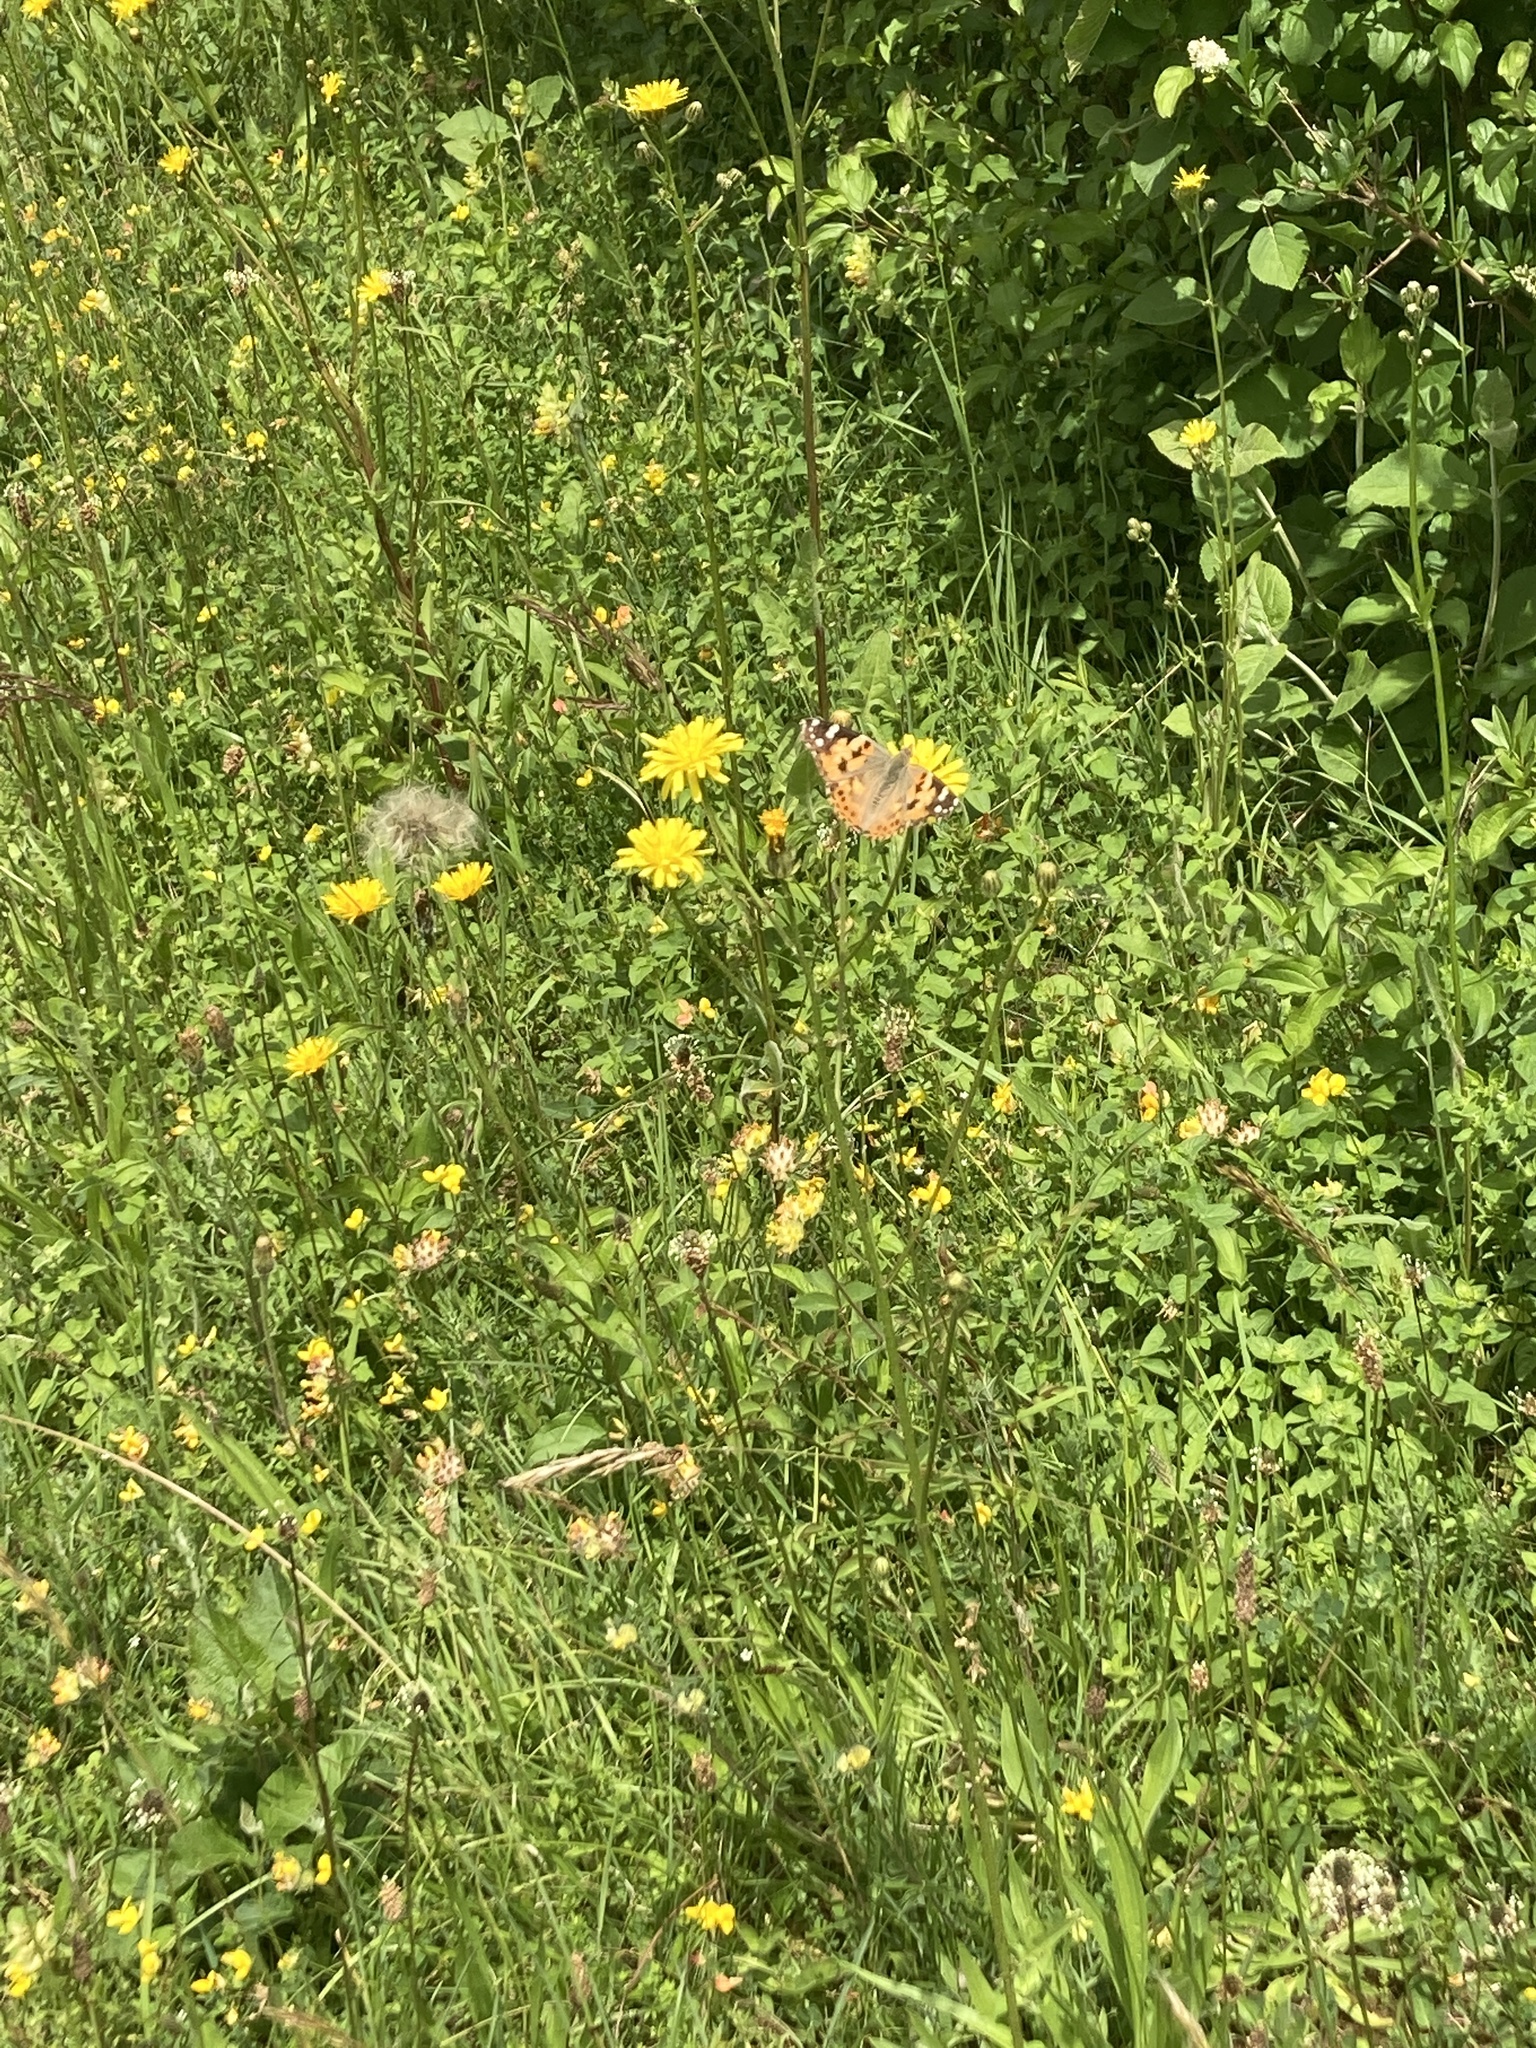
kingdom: Animalia
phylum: Arthropoda
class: Insecta
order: Lepidoptera
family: Nymphalidae
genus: Vanessa
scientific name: Vanessa cardui
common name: Painted lady
